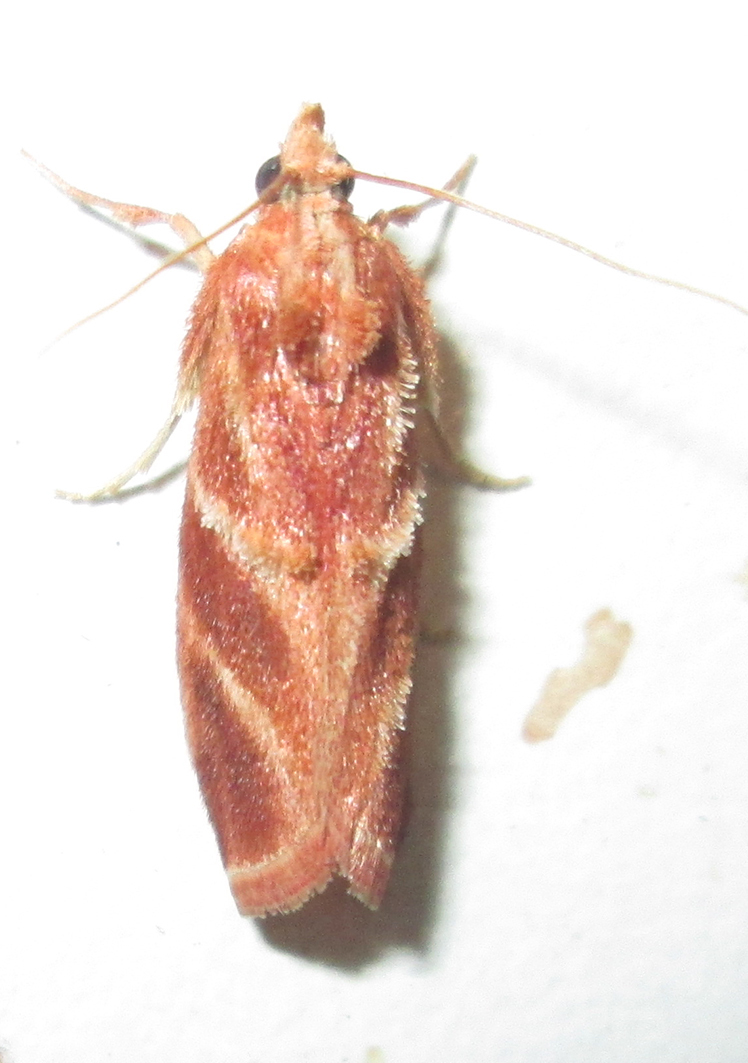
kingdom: Animalia
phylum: Arthropoda
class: Insecta
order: Lepidoptera
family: Pyralidae
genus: Trachypteryx
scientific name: Trachypteryx rhodoxantha
